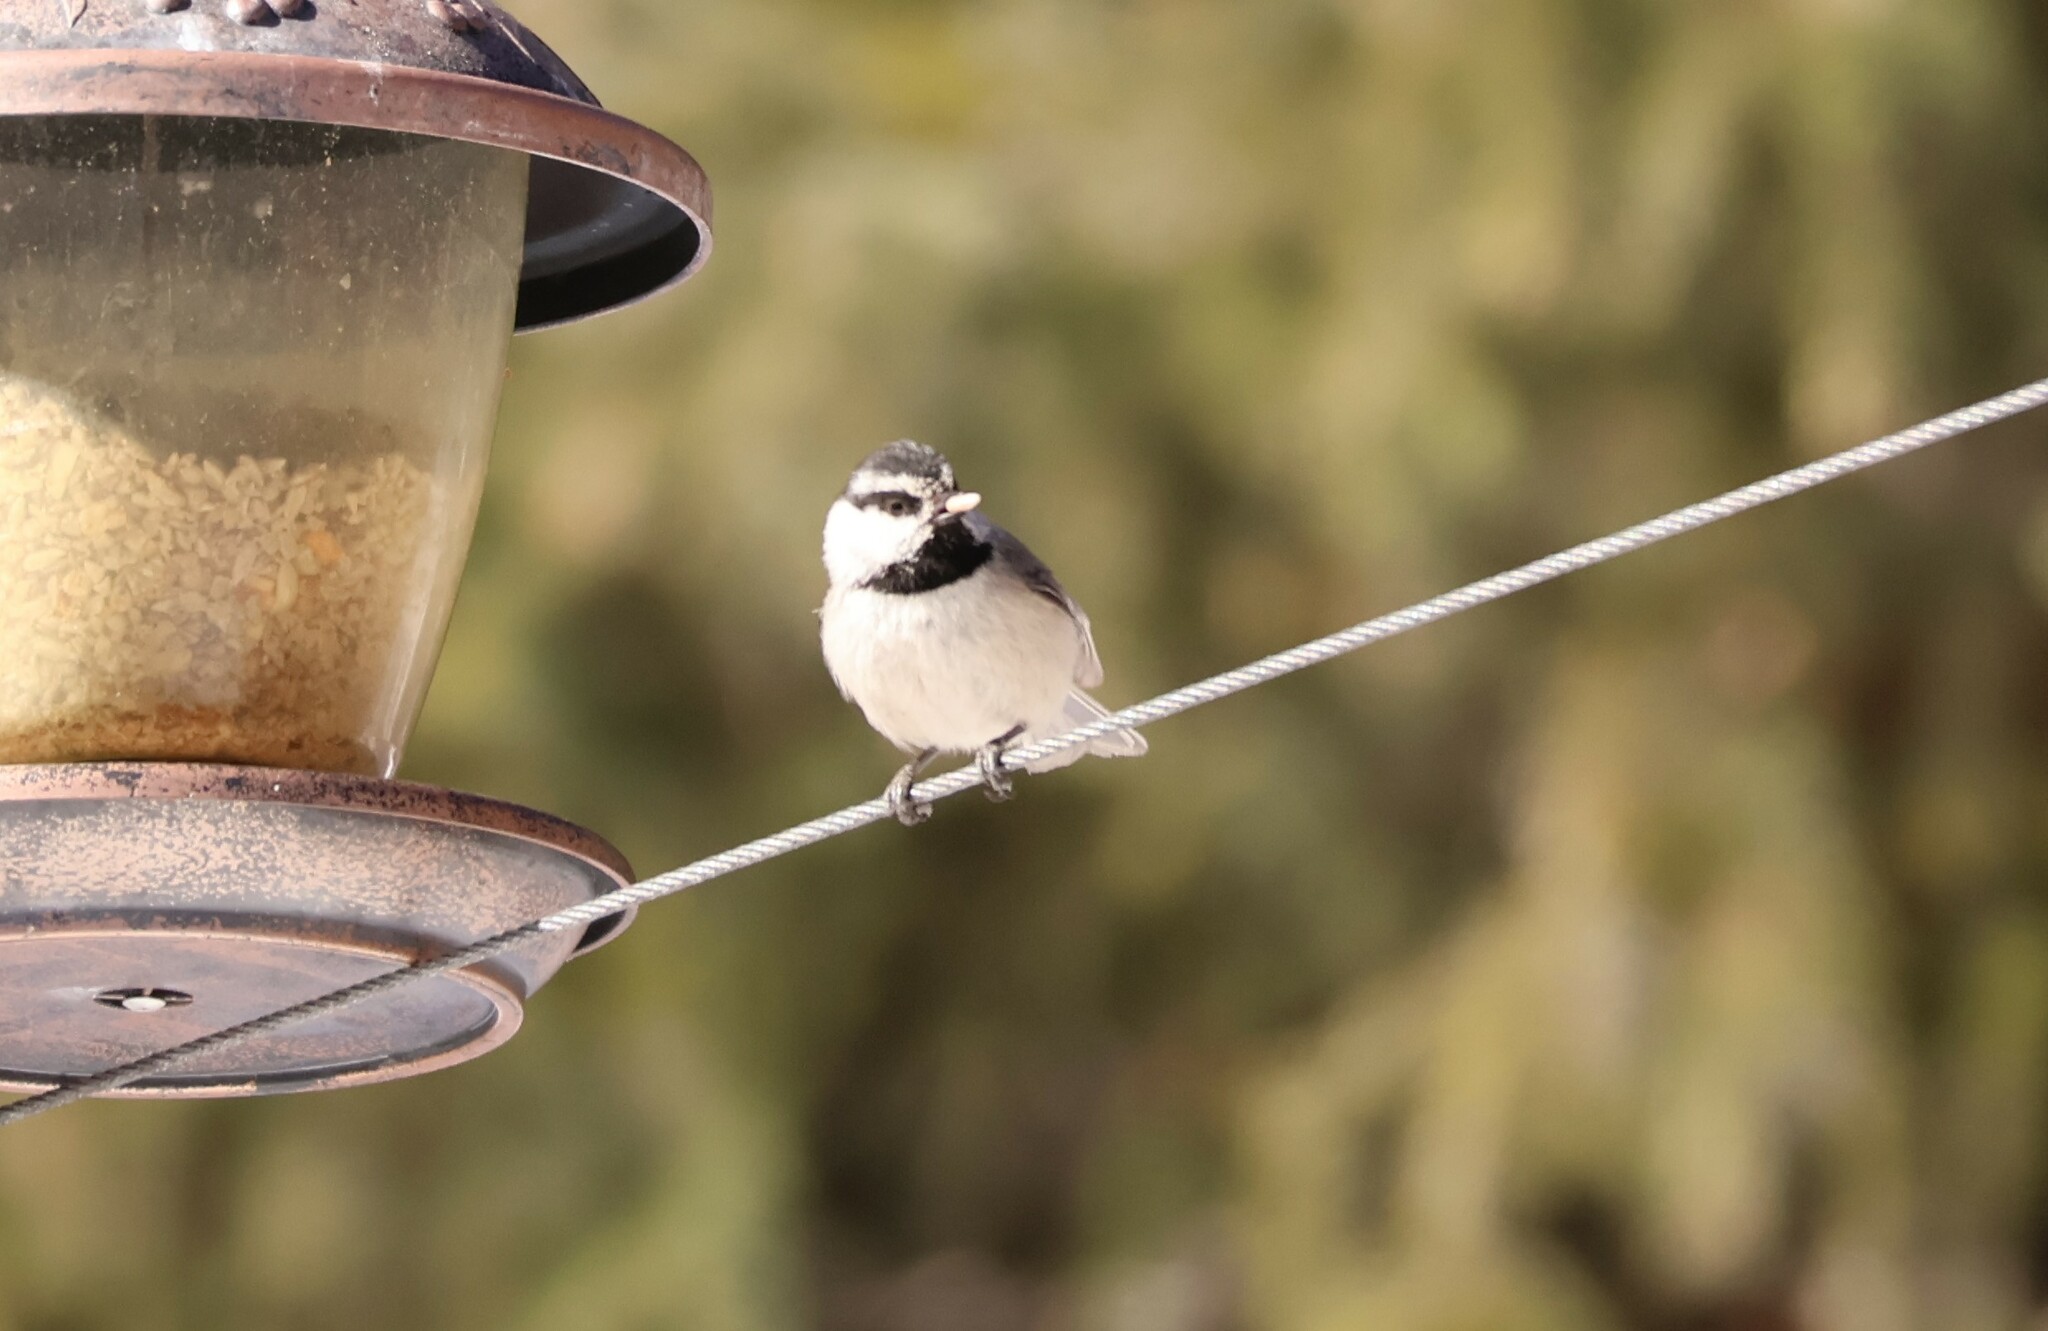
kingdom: Animalia
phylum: Chordata
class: Aves
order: Passeriformes
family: Paridae
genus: Poecile
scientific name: Poecile gambeli
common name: Mountain chickadee
